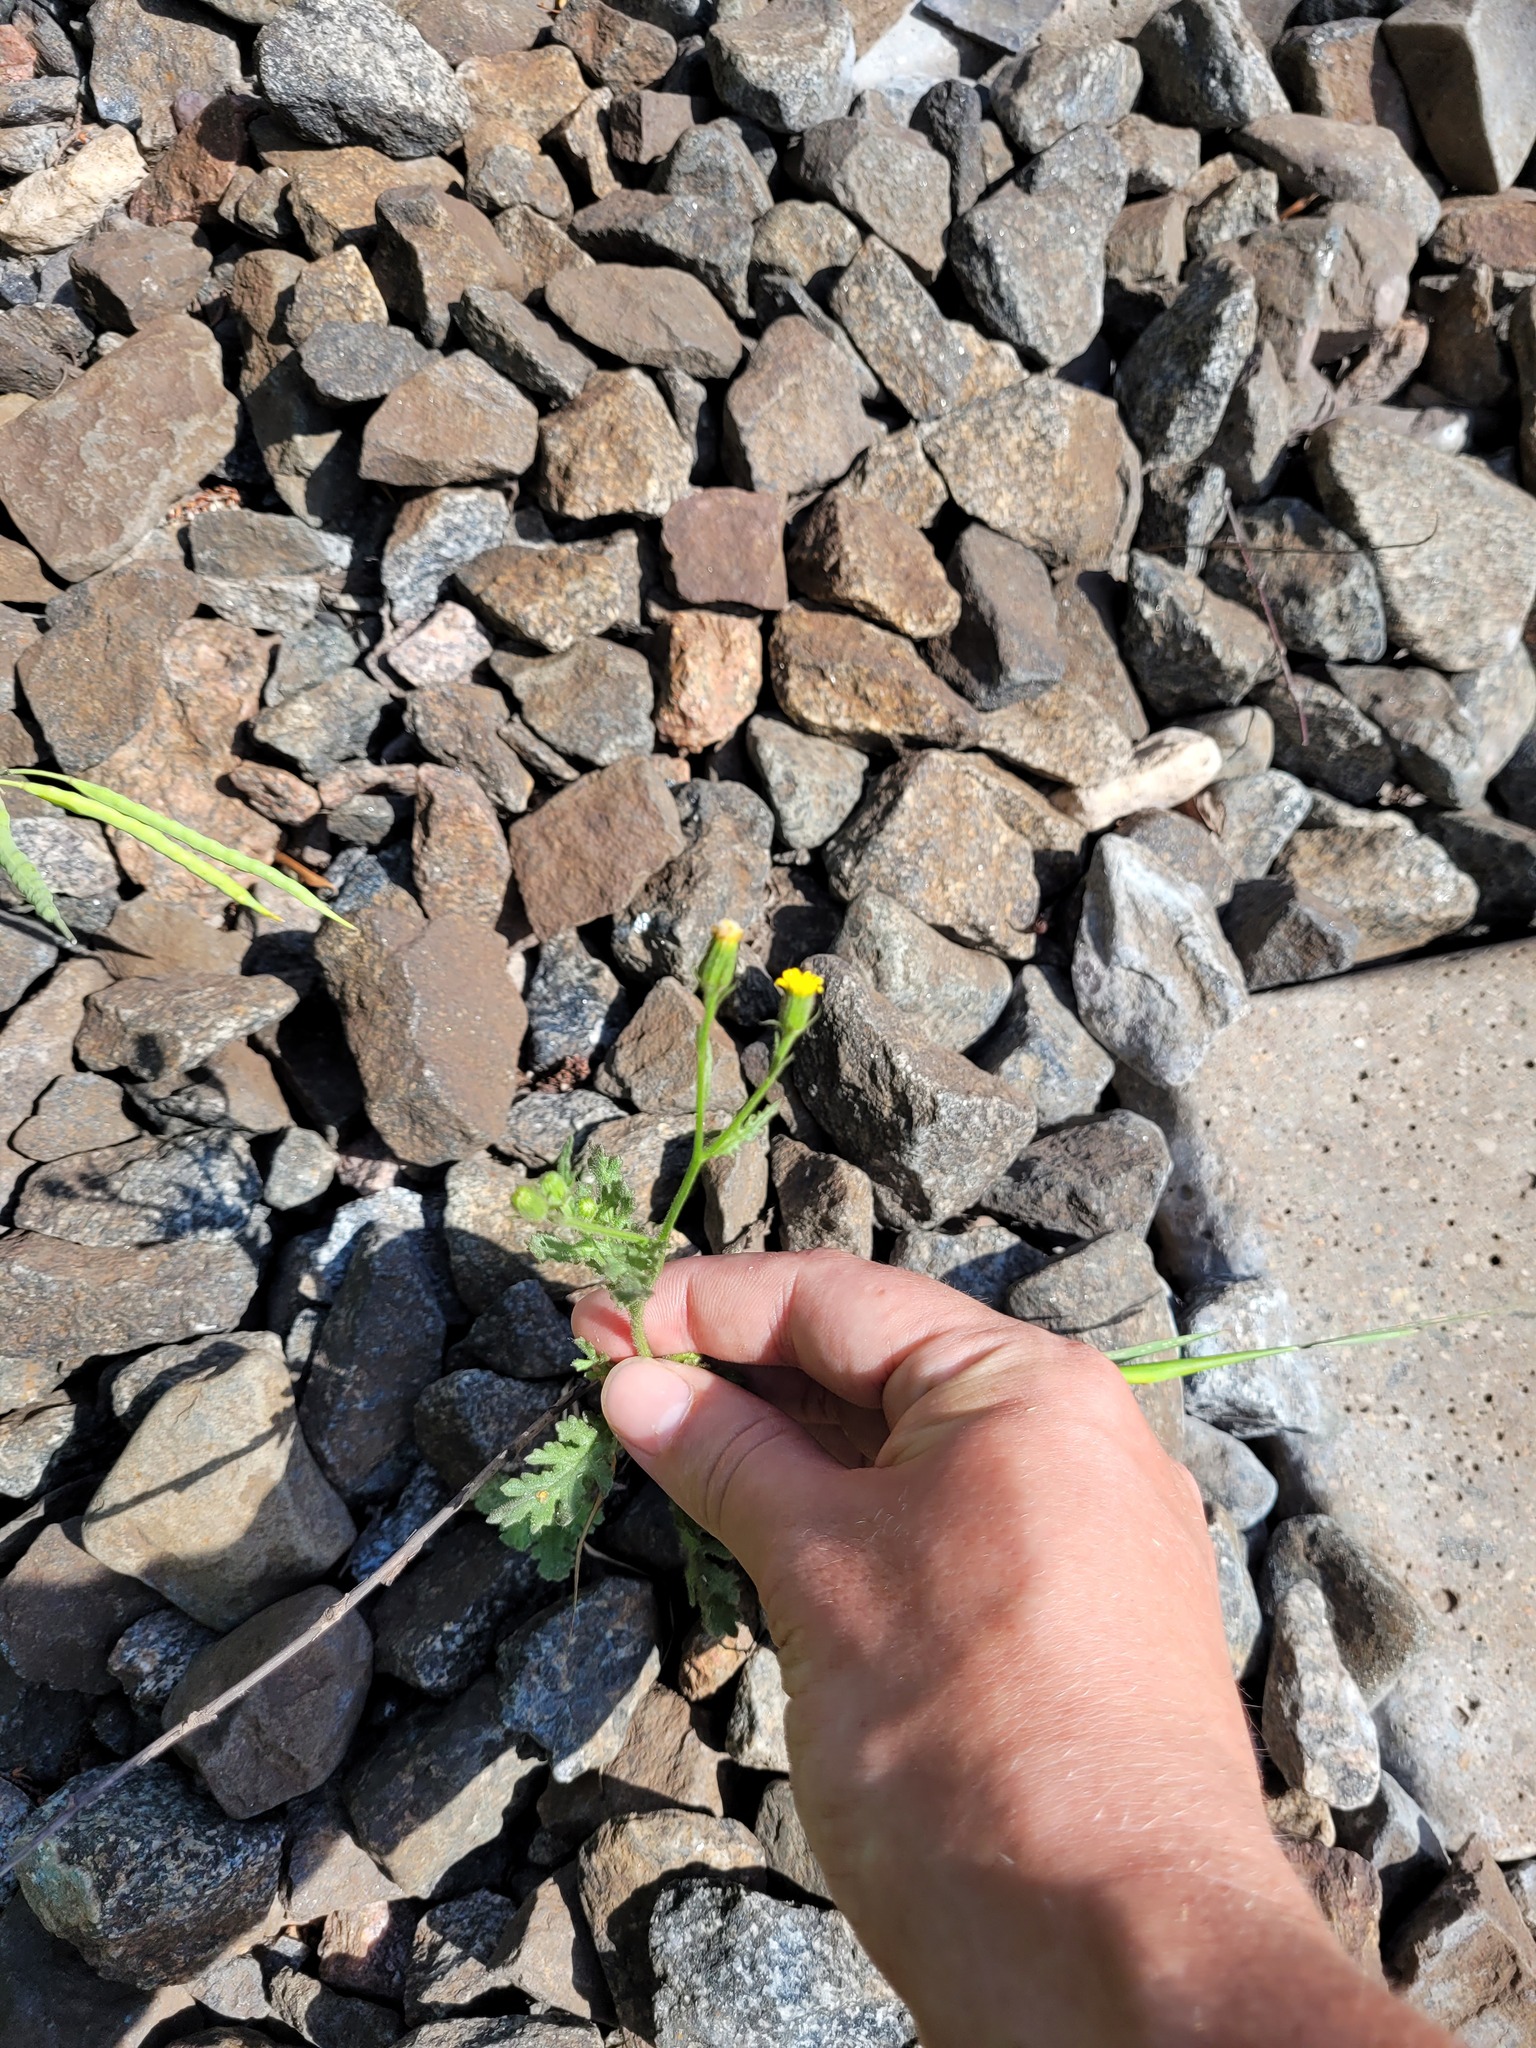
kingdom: Plantae
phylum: Tracheophyta
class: Magnoliopsida
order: Asterales
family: Asteraceae
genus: Senecio
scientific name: Senecio viscosus
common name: Sticky groundsel
